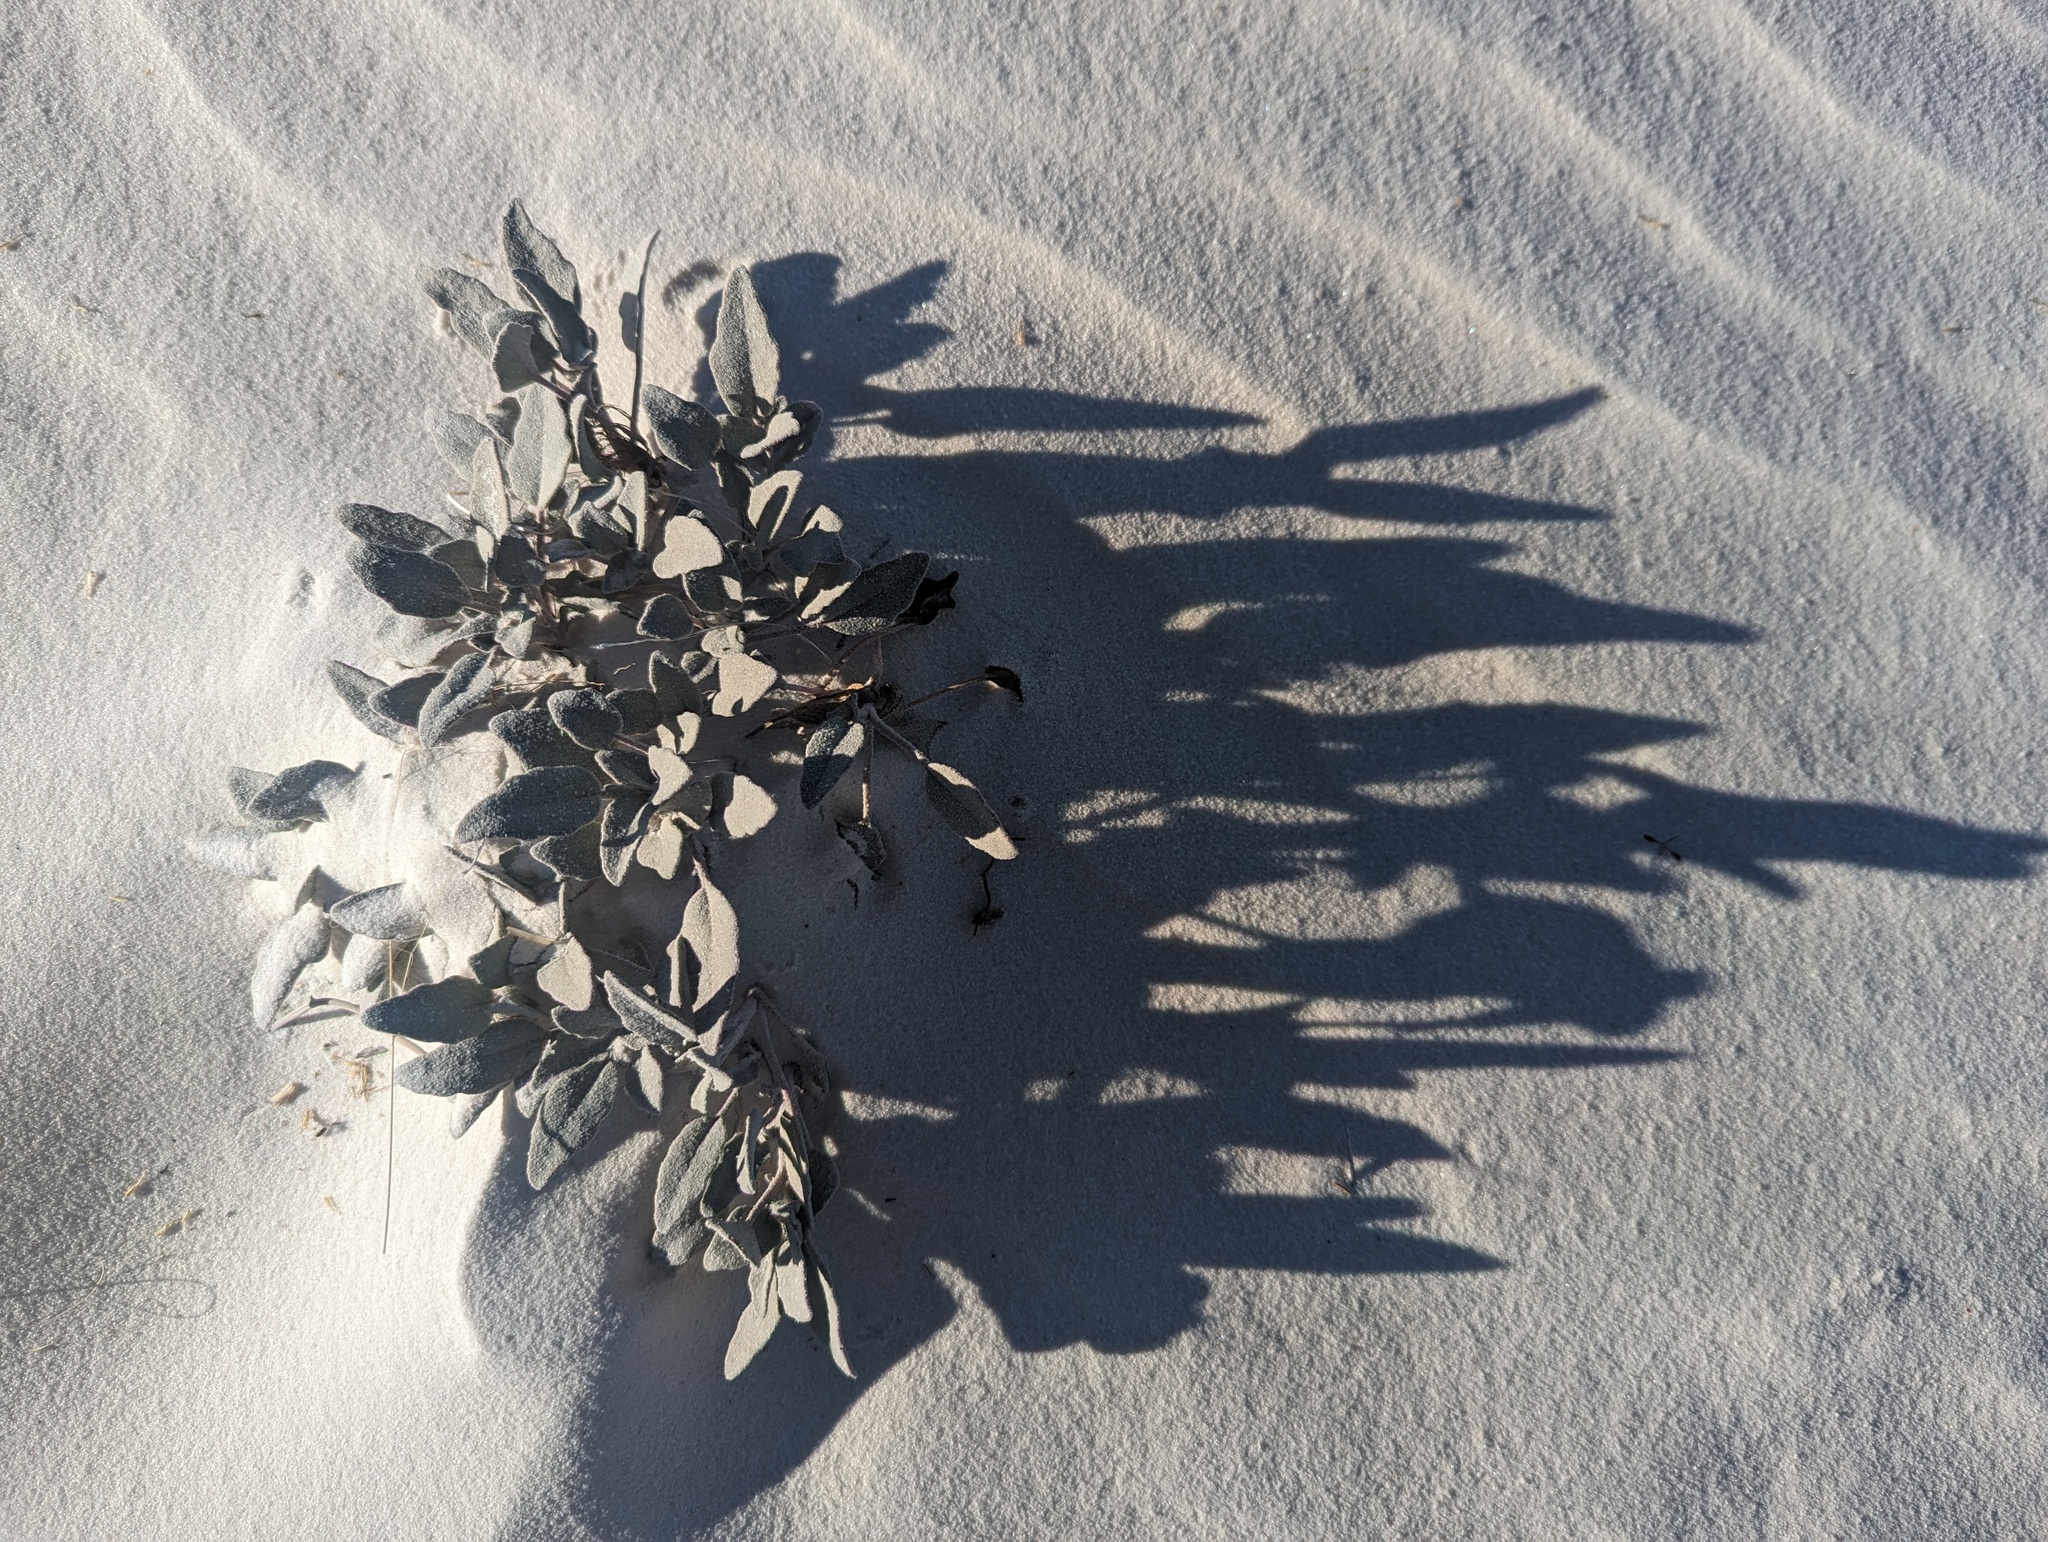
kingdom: Plantae
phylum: Tracheophyta
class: Magnoliopsida
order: Caryophyllales
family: Nyctaginaceae
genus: Abronia
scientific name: Abronia angustifolia
